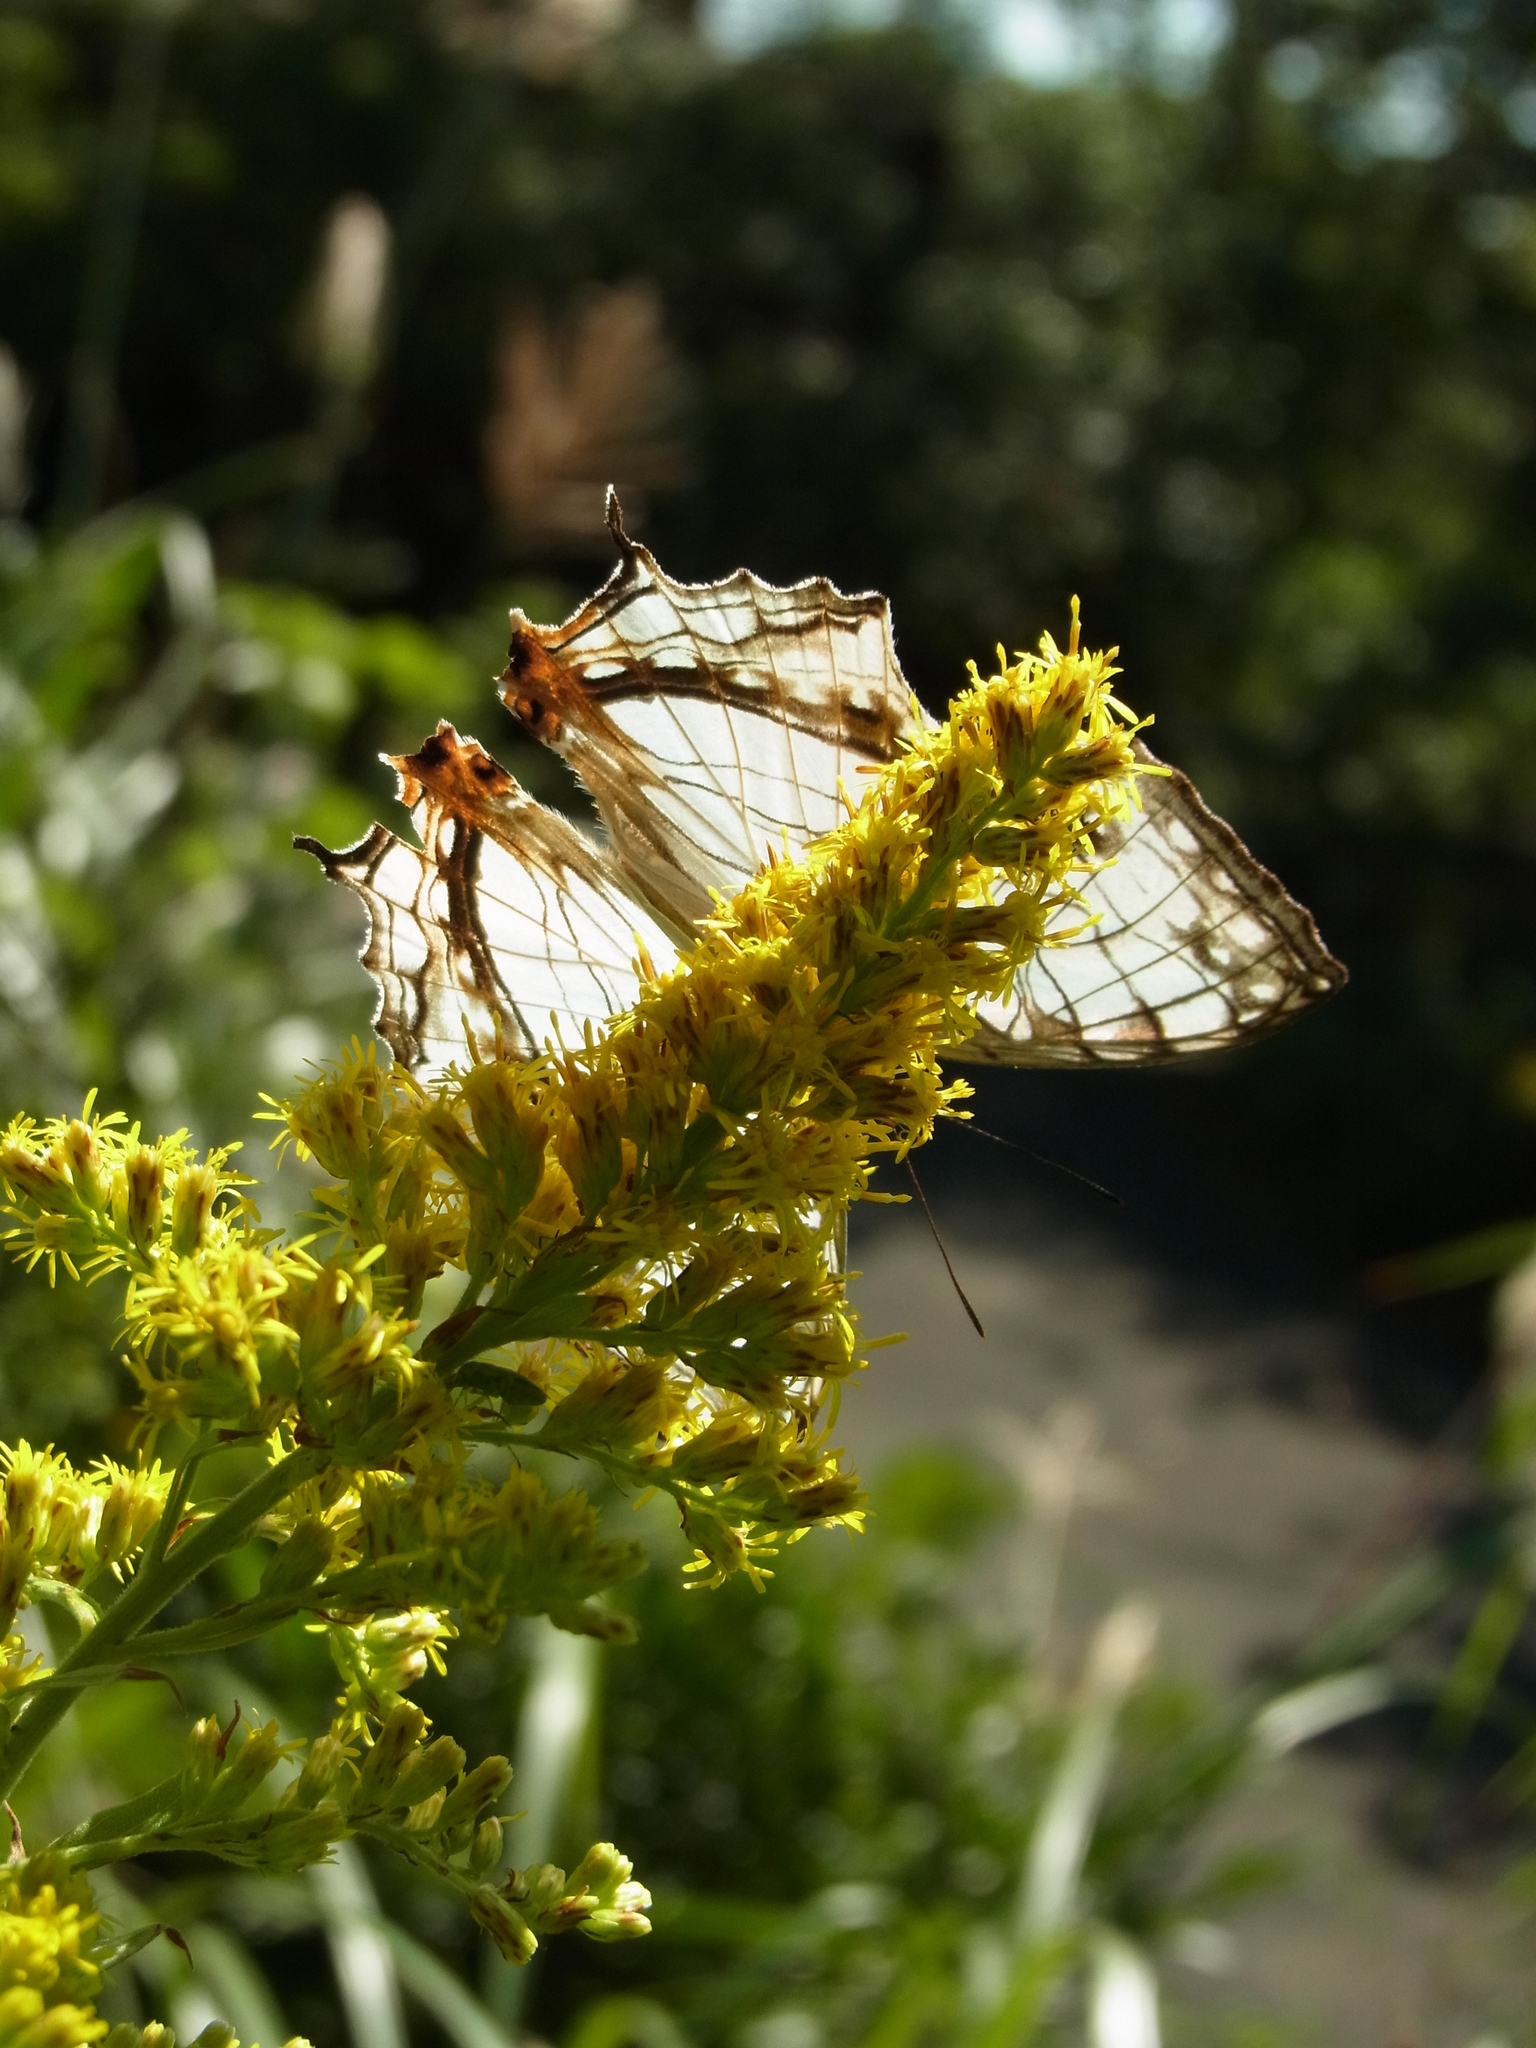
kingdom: Animalia
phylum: Arthropoda
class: Insecta
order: Lepidoptera
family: Nymphalidae
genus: Cyrestis
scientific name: Cyrestis thyodamas
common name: Common mapwing
